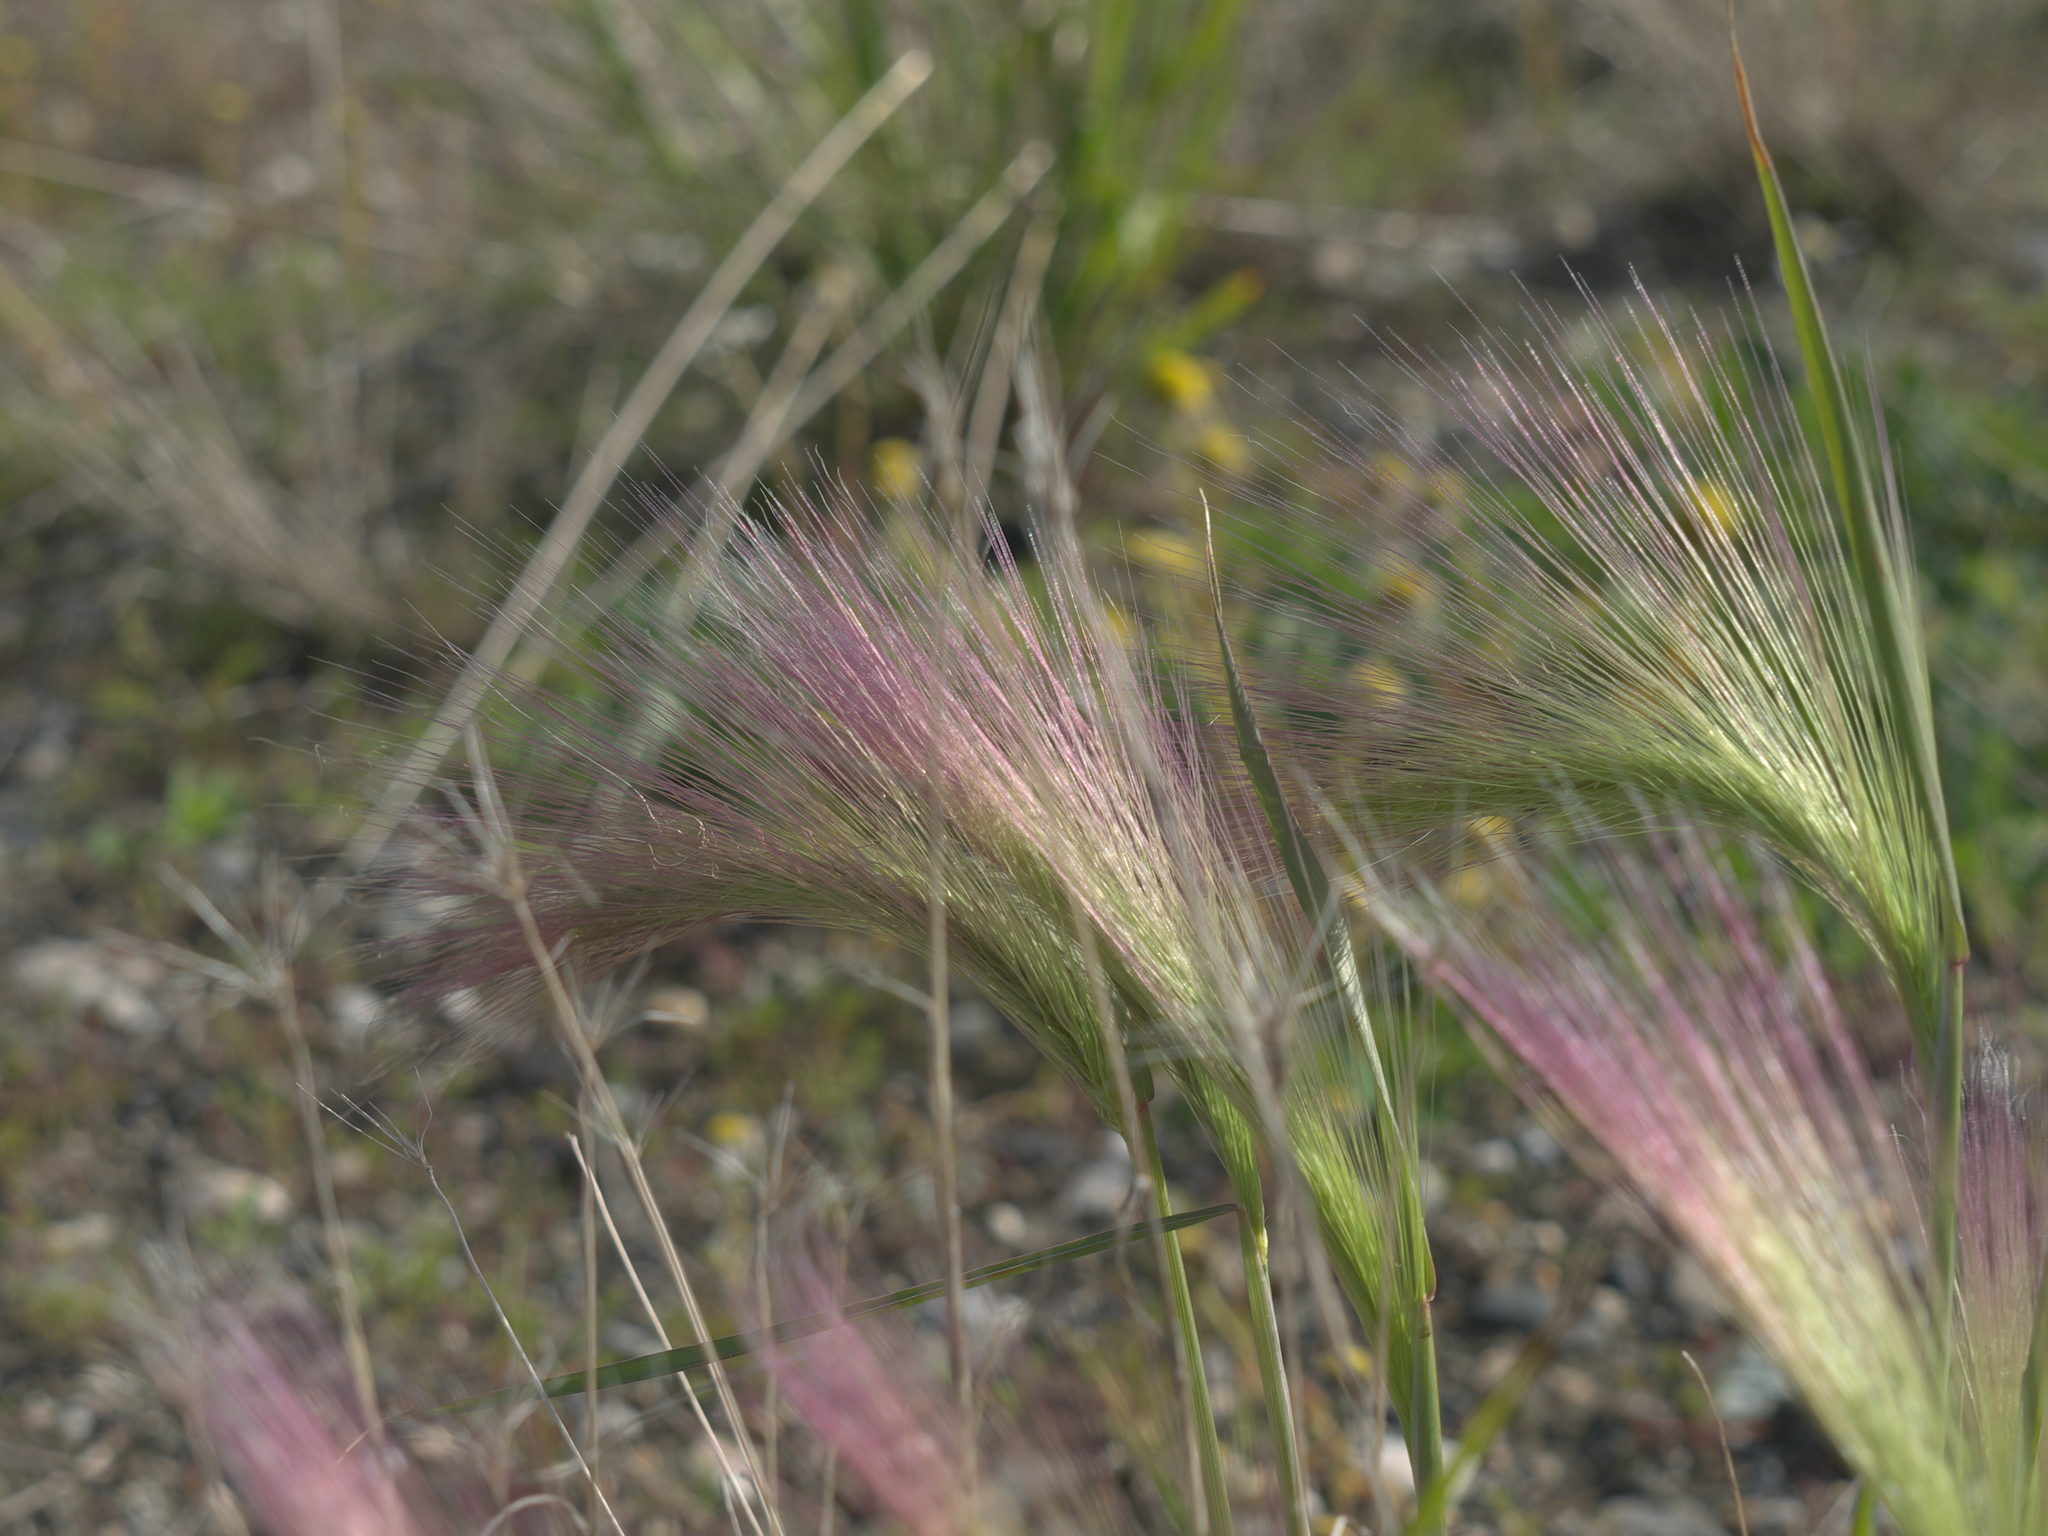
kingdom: Plantae
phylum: Tracheophyta
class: Liliopsida
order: Poales
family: Poaceae
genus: Hordeum
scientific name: Hordeum jubatum
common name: Foxtail barley
